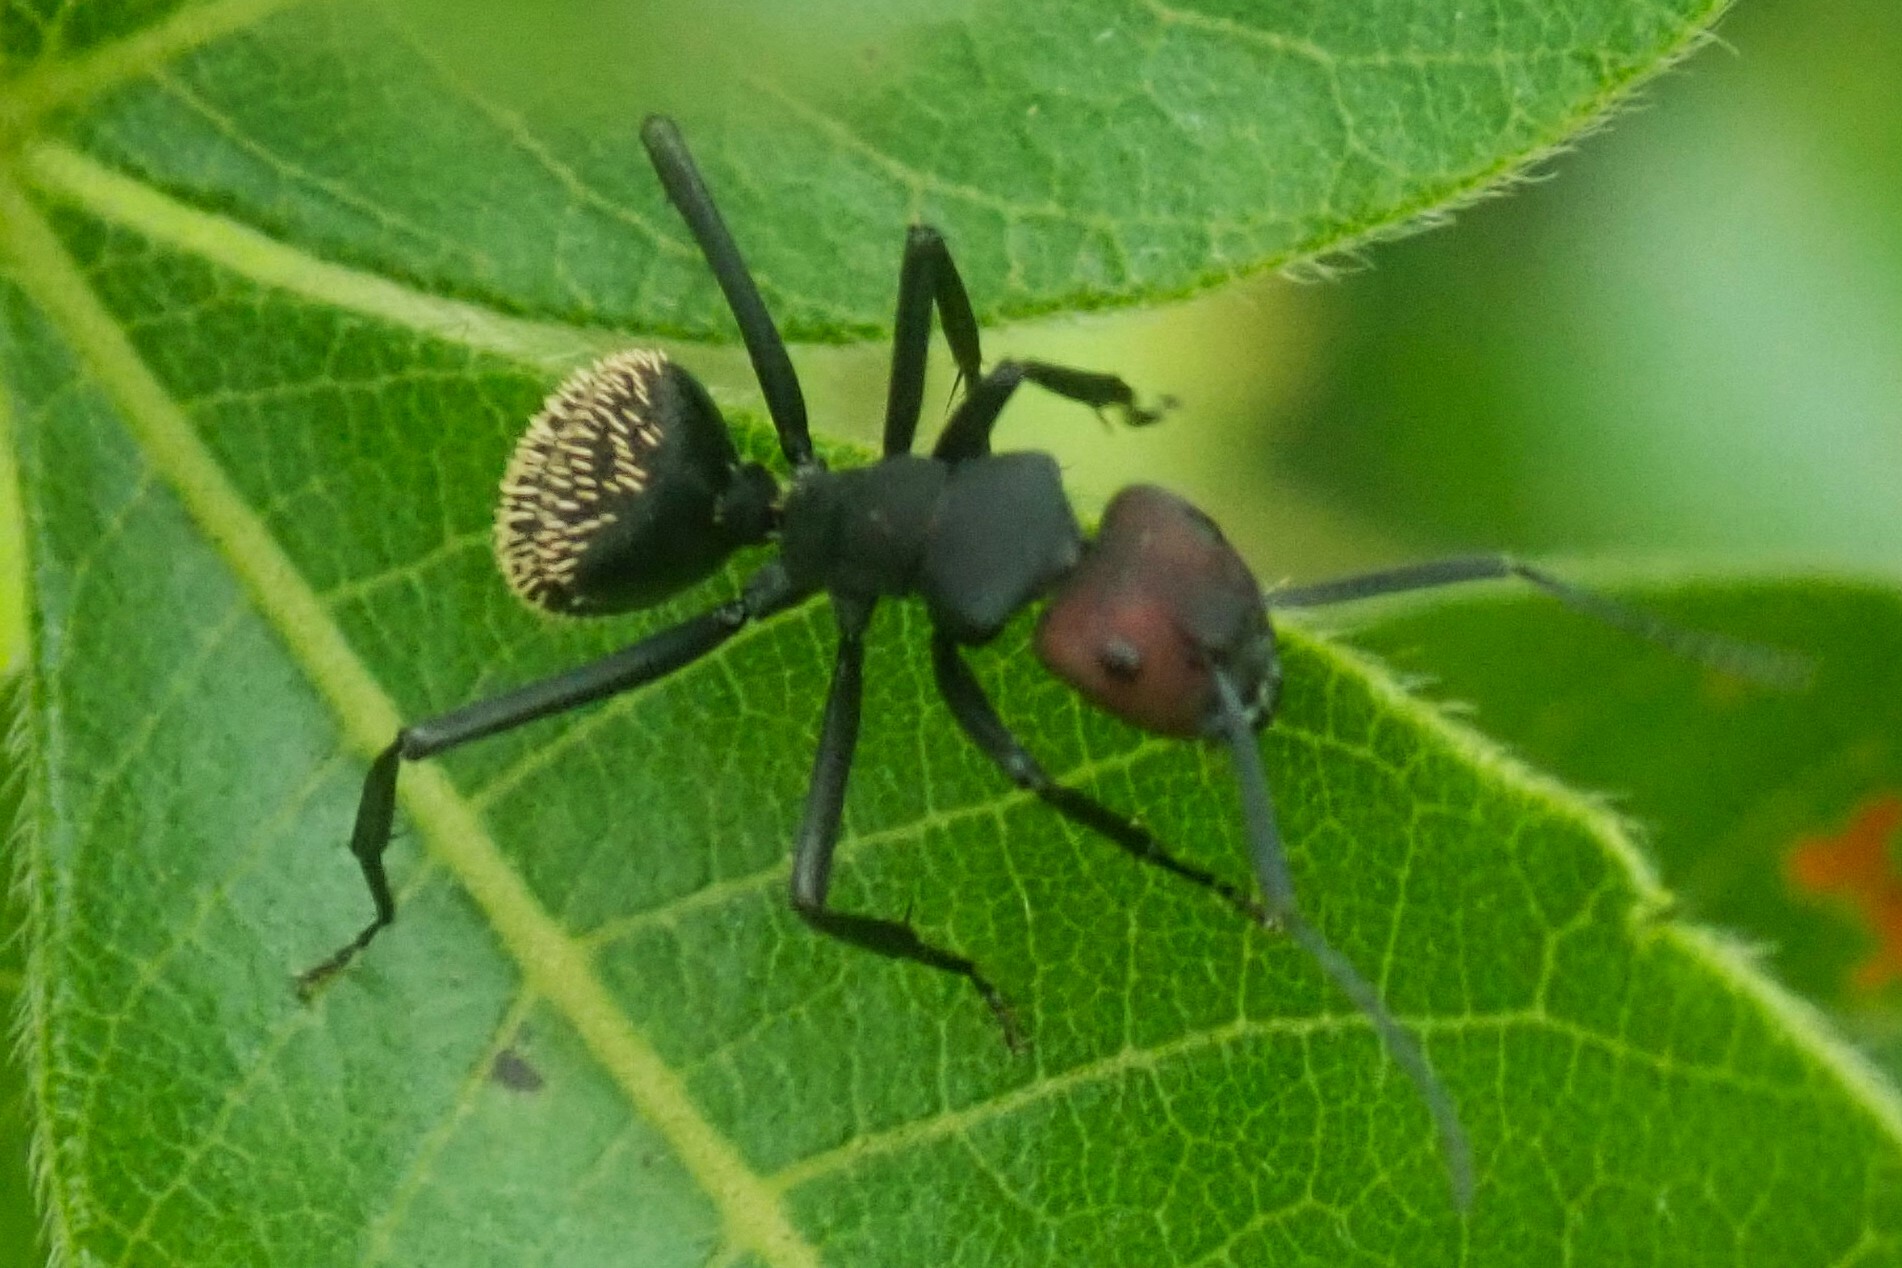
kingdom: Animalia
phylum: Arthropoda
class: Insecta
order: Hymenoptera
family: Formicidae
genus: Camponotus
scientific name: Camponotus brevisetosus
